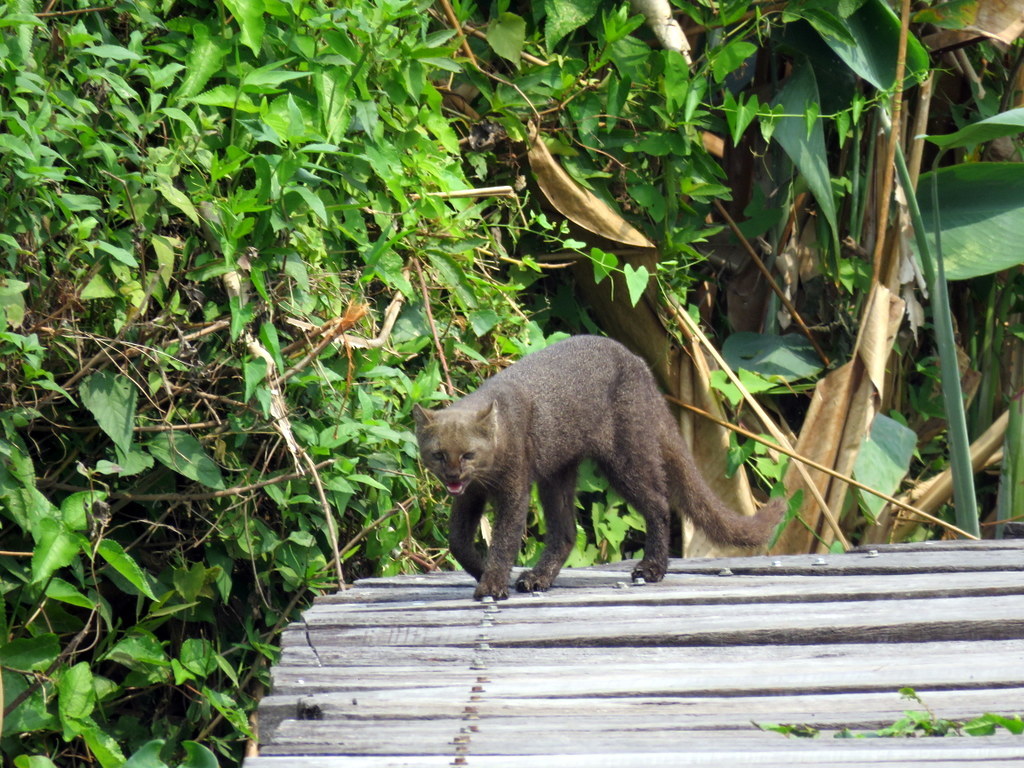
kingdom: Animalia
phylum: Chordata
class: Mammalia
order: Carnivora
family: Felidae
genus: Puma
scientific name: Puma yagouaroundi
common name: Jaguarundi
